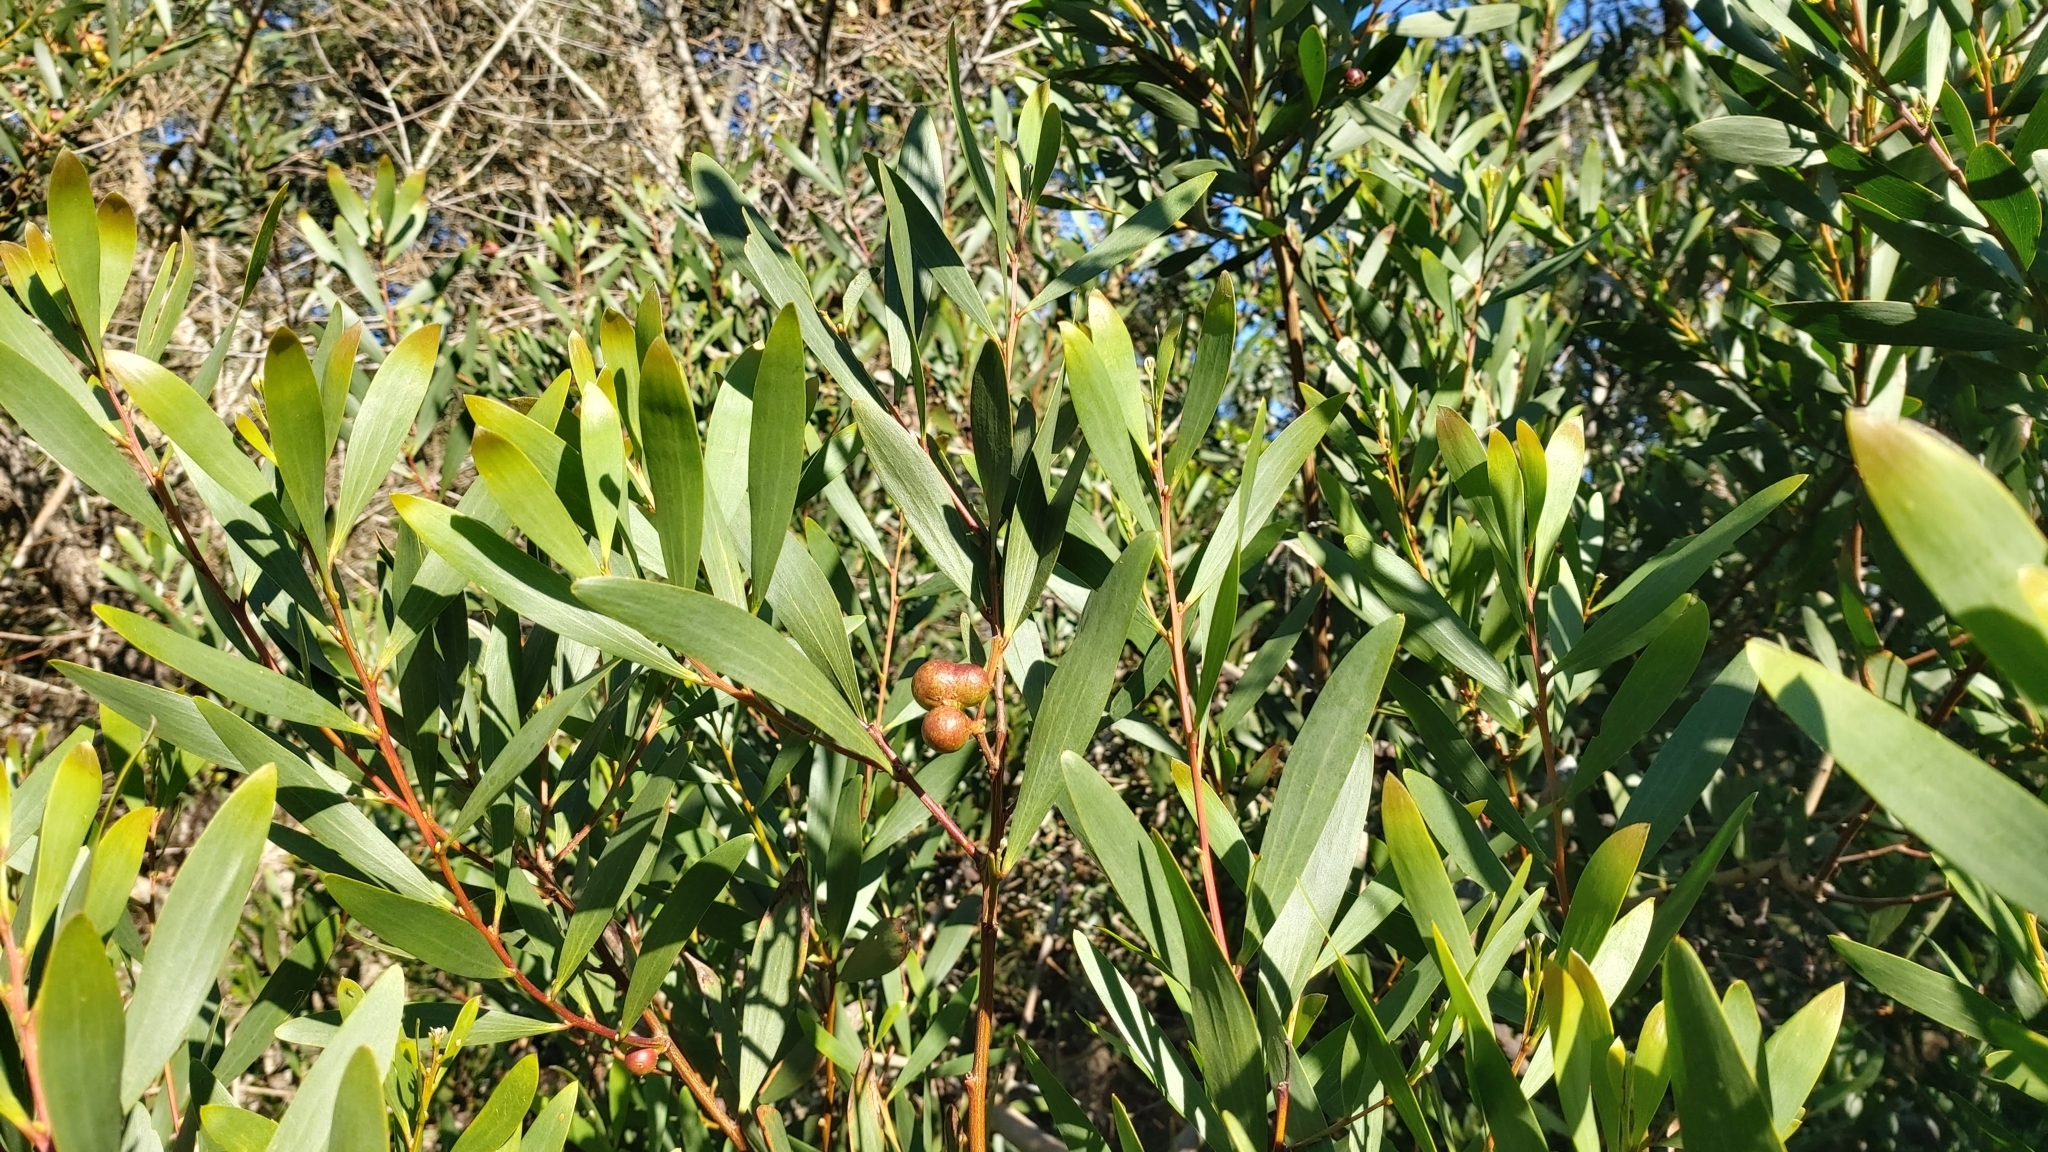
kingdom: Animalia
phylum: Arthropoda
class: Insecta
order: Hymenoptera
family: Pteromalidae
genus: Trichilogaster
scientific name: Trichilogaster acaciaelongifoliae
